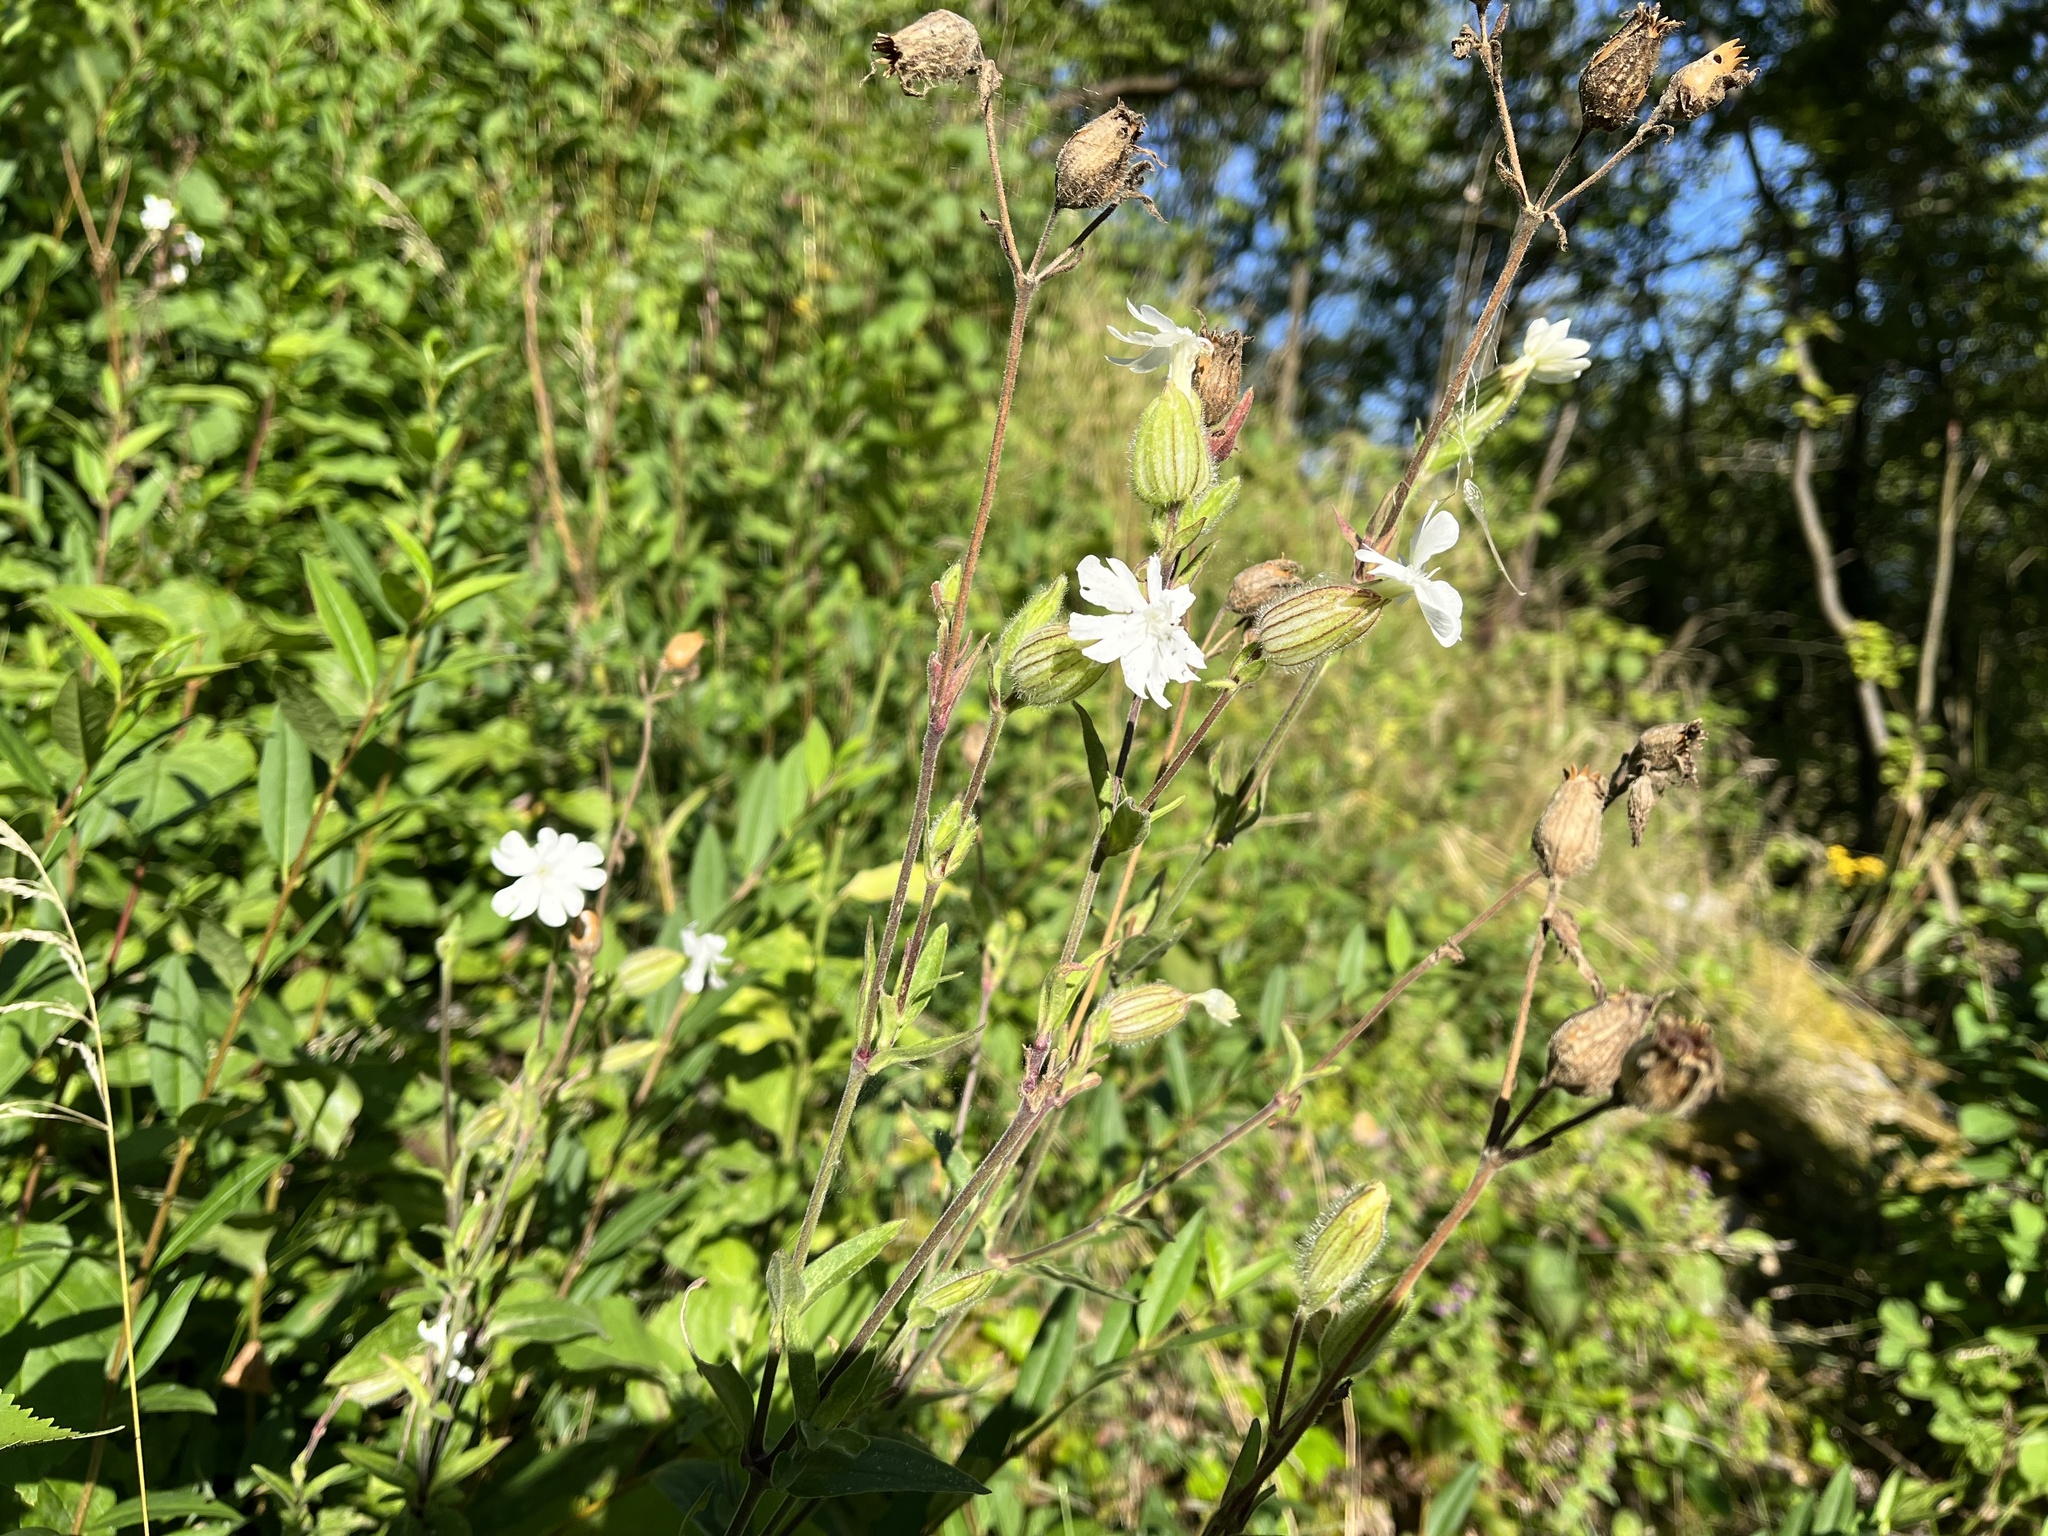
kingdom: Plantae
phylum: Tracheophyta
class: Magnoliopsida
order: Caryophyllales
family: Caryophyllaceae
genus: Silene
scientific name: Silene latifolia
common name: White campion
